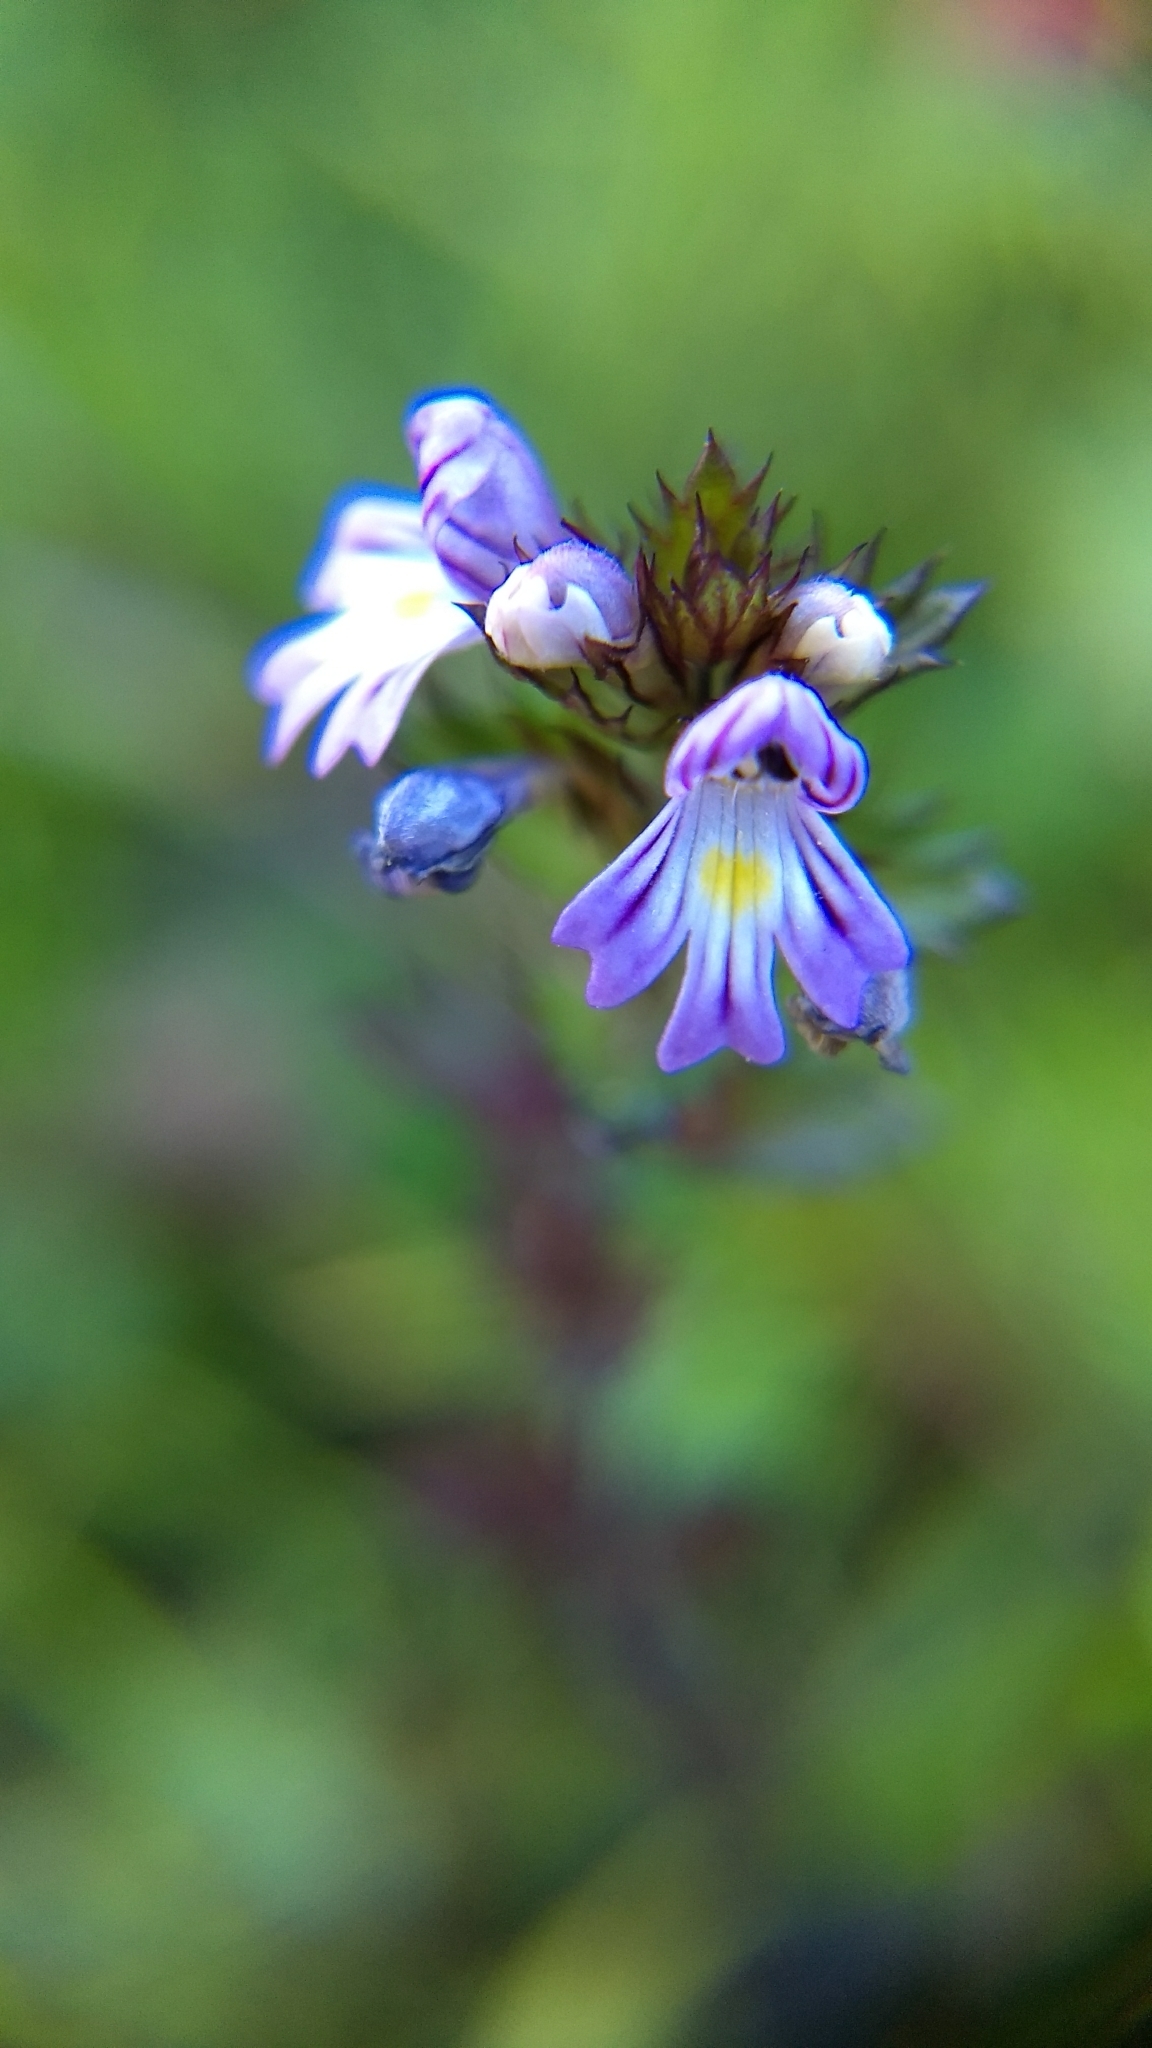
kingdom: Plantae
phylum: Tracheophyta
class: Magnoliopsida
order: Lamiales
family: Orobanchaceae
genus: Euphrasia
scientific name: Euphrasia stricta
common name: Drug eyebright
